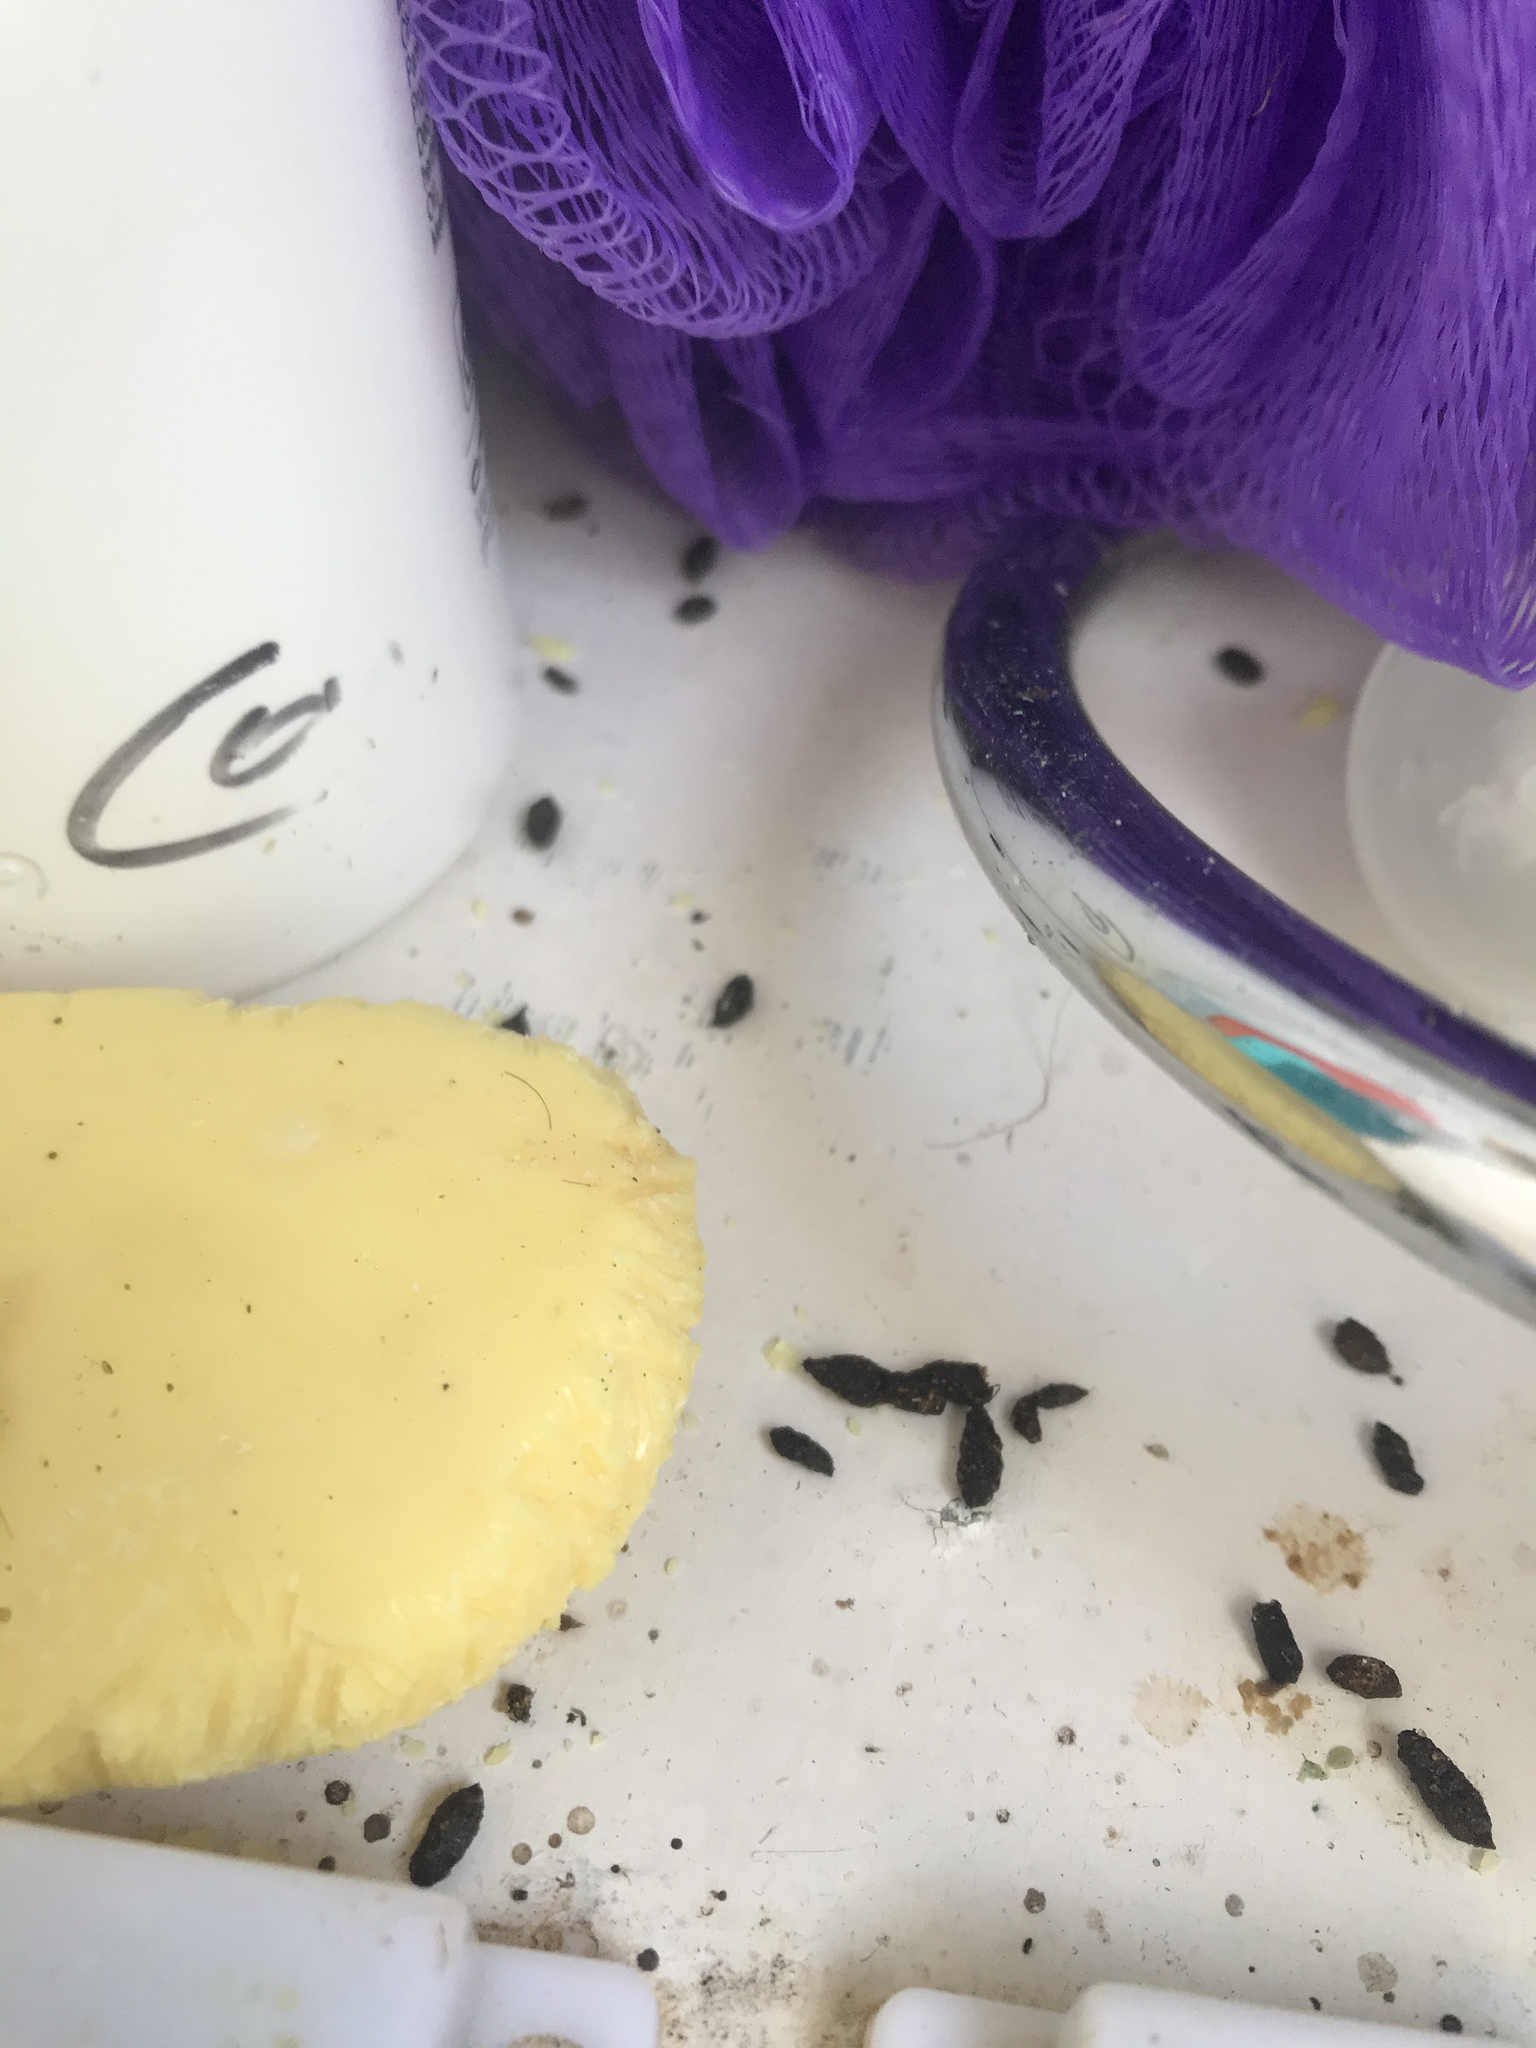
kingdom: Animalia
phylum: Chordata
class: Mammalia
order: Rodentia
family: Muridae
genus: Mus
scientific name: Mus musculus
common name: House mouse
